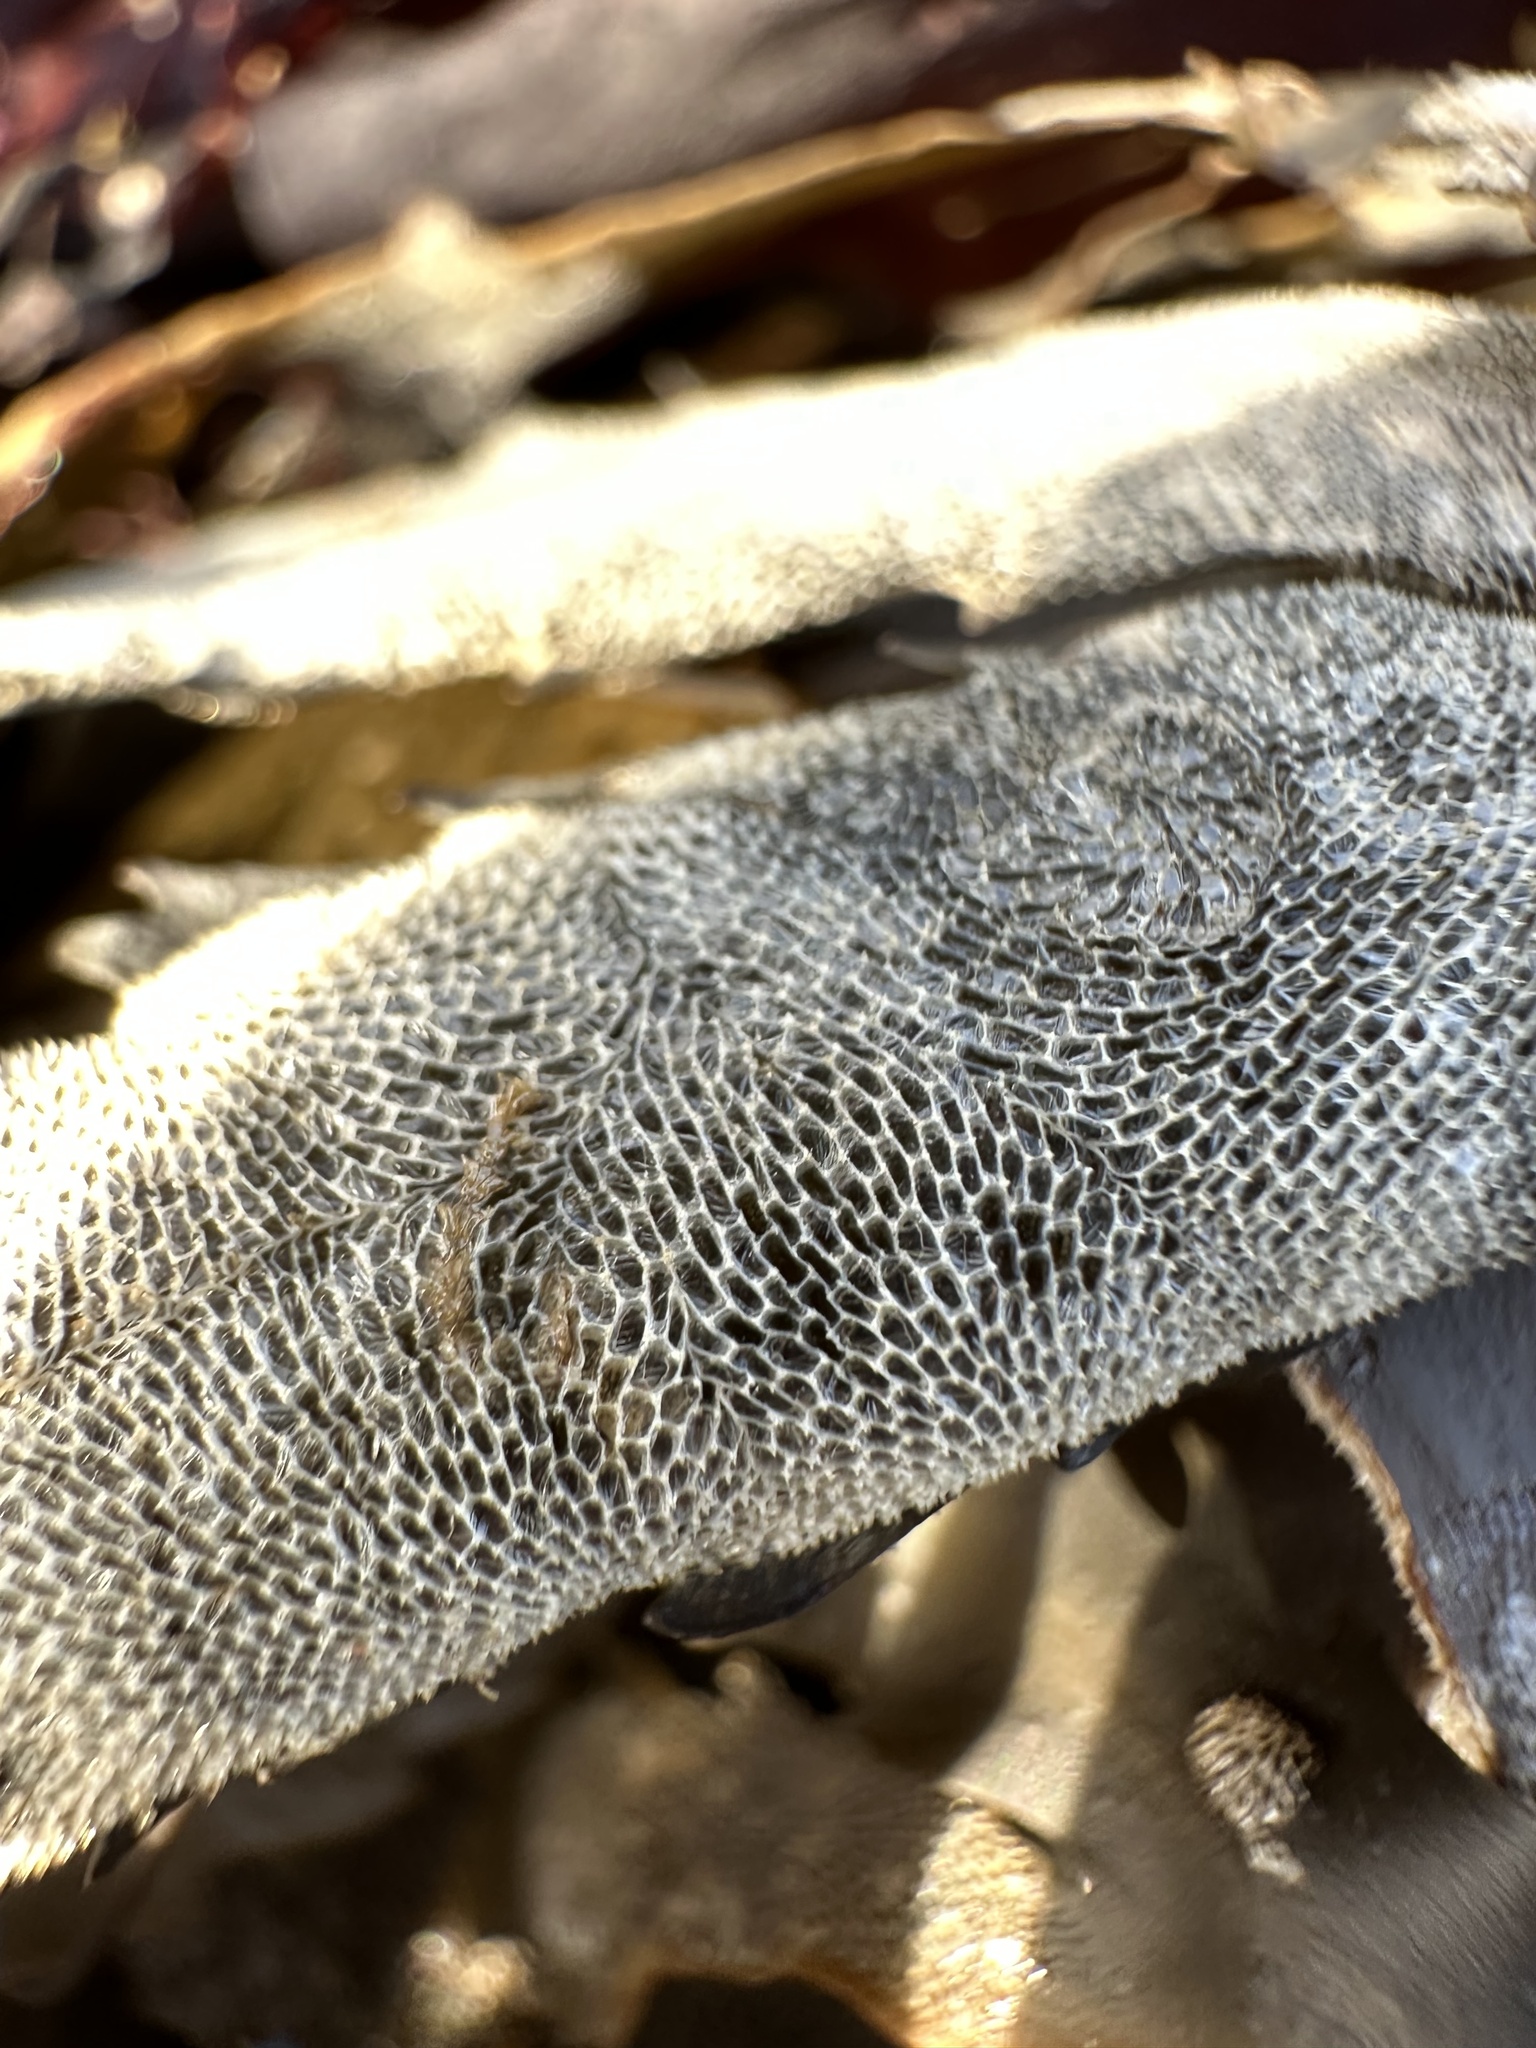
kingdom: Animalia
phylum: Bryozoa
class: Gymnolaemata
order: Cheilostomatida
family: Membraniporidae
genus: Membranipora
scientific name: Membranipora membranacea
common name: Sea mat
